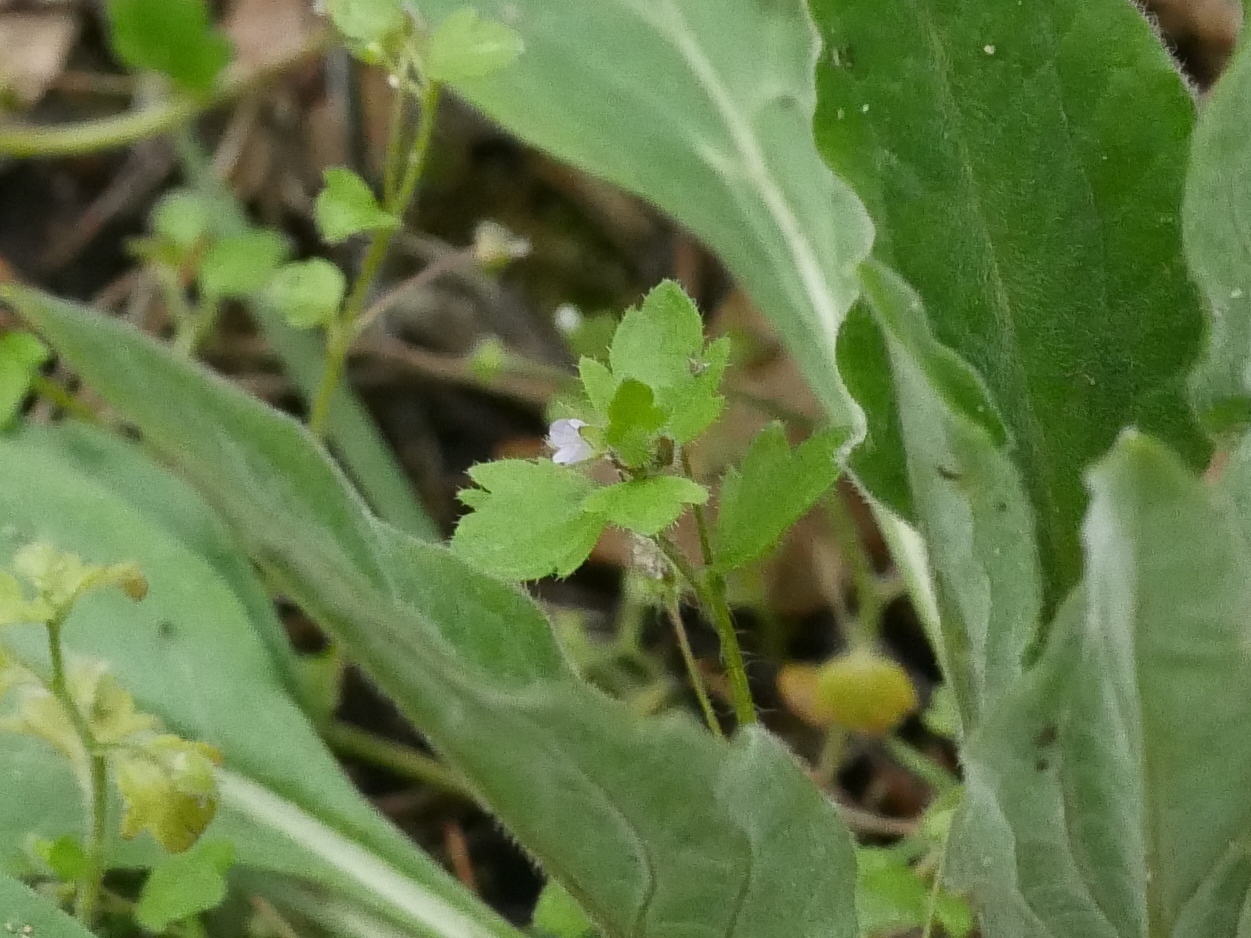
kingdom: Plantae
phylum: Tracheophyta
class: Magnoliopsida
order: Lamiales
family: Plantaginaceae
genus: Veronica
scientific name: Veronica sublobata
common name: False ivy-leaved speedwell
